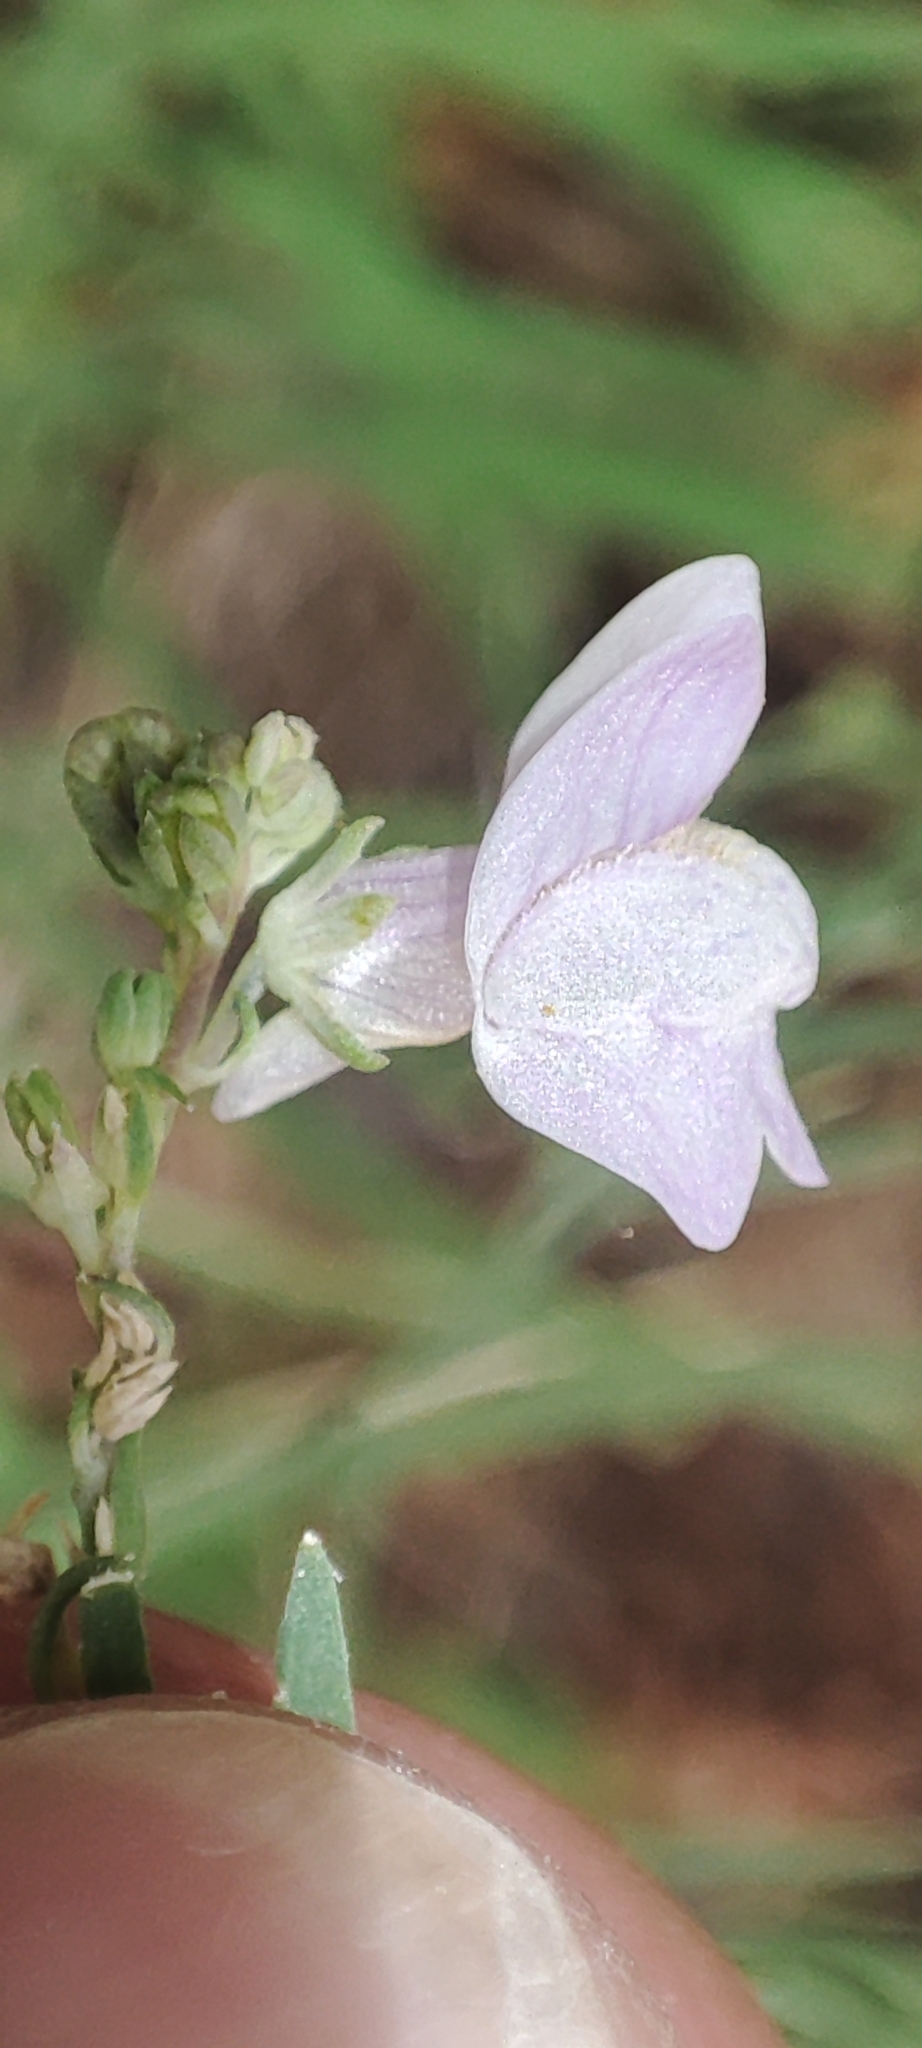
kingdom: Plantae
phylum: Tracheophyta
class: Magnoliopsida
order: Lamiales
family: Plantaginaceae
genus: Linaria
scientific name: Linaria repens
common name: Pale toadflax
